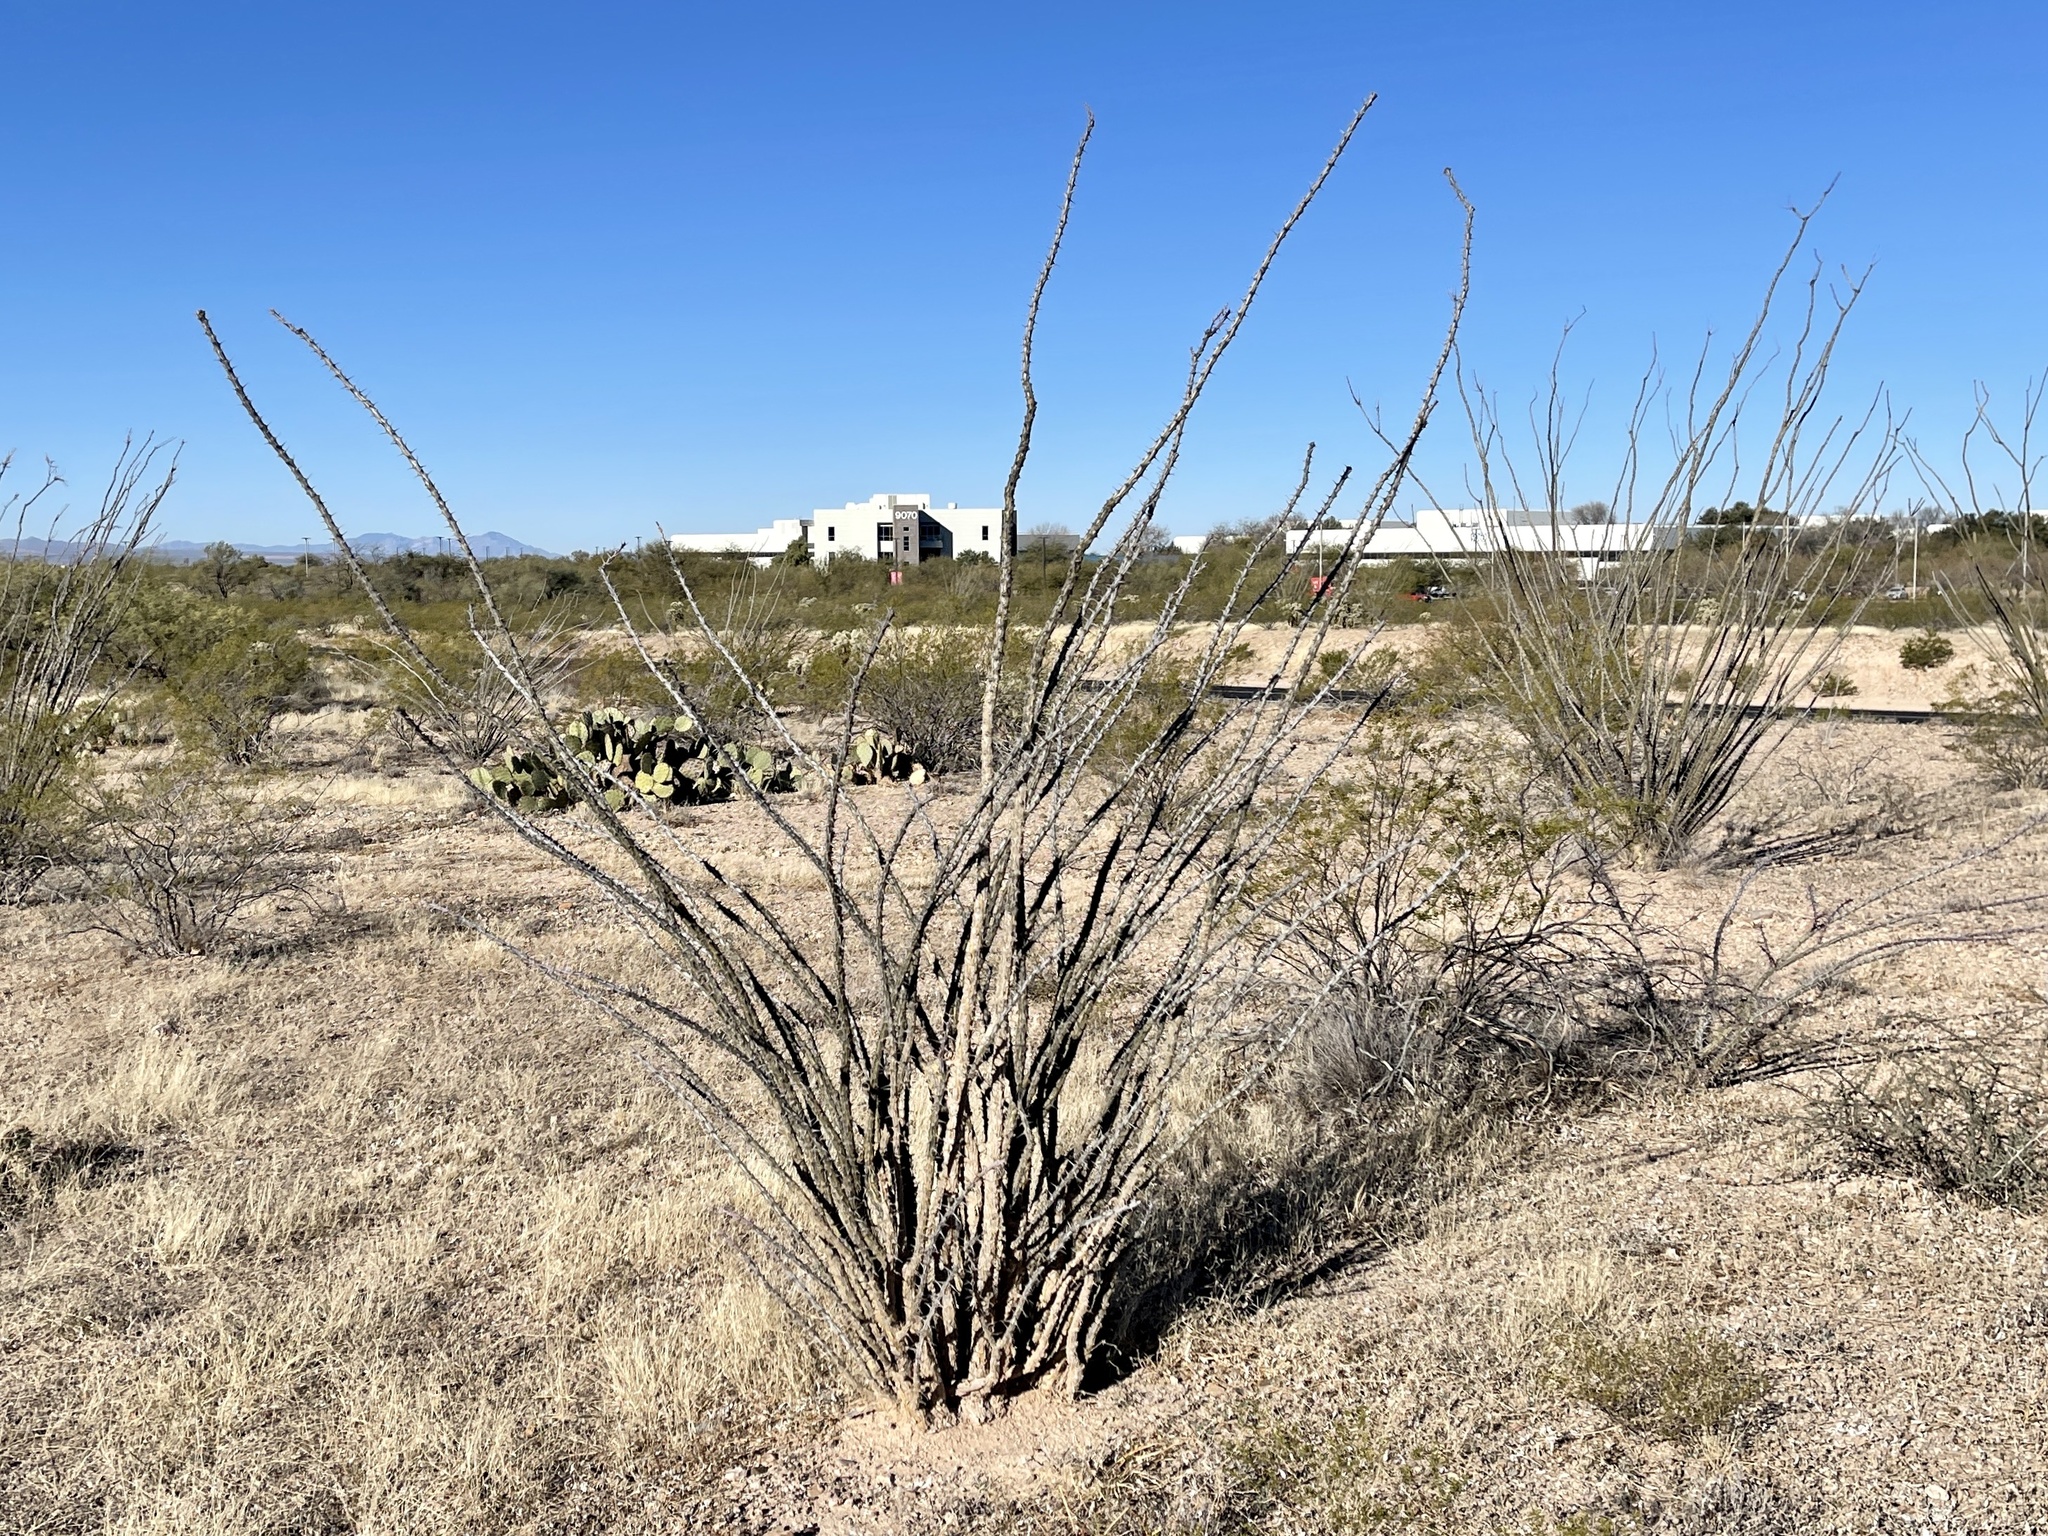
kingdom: Plantae
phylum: Tracheophyta
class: Magnoliopsida
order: Ericales
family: Fouquieriaceae
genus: Fouquieria
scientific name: Fouquieria splendens
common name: Vine-cactus
